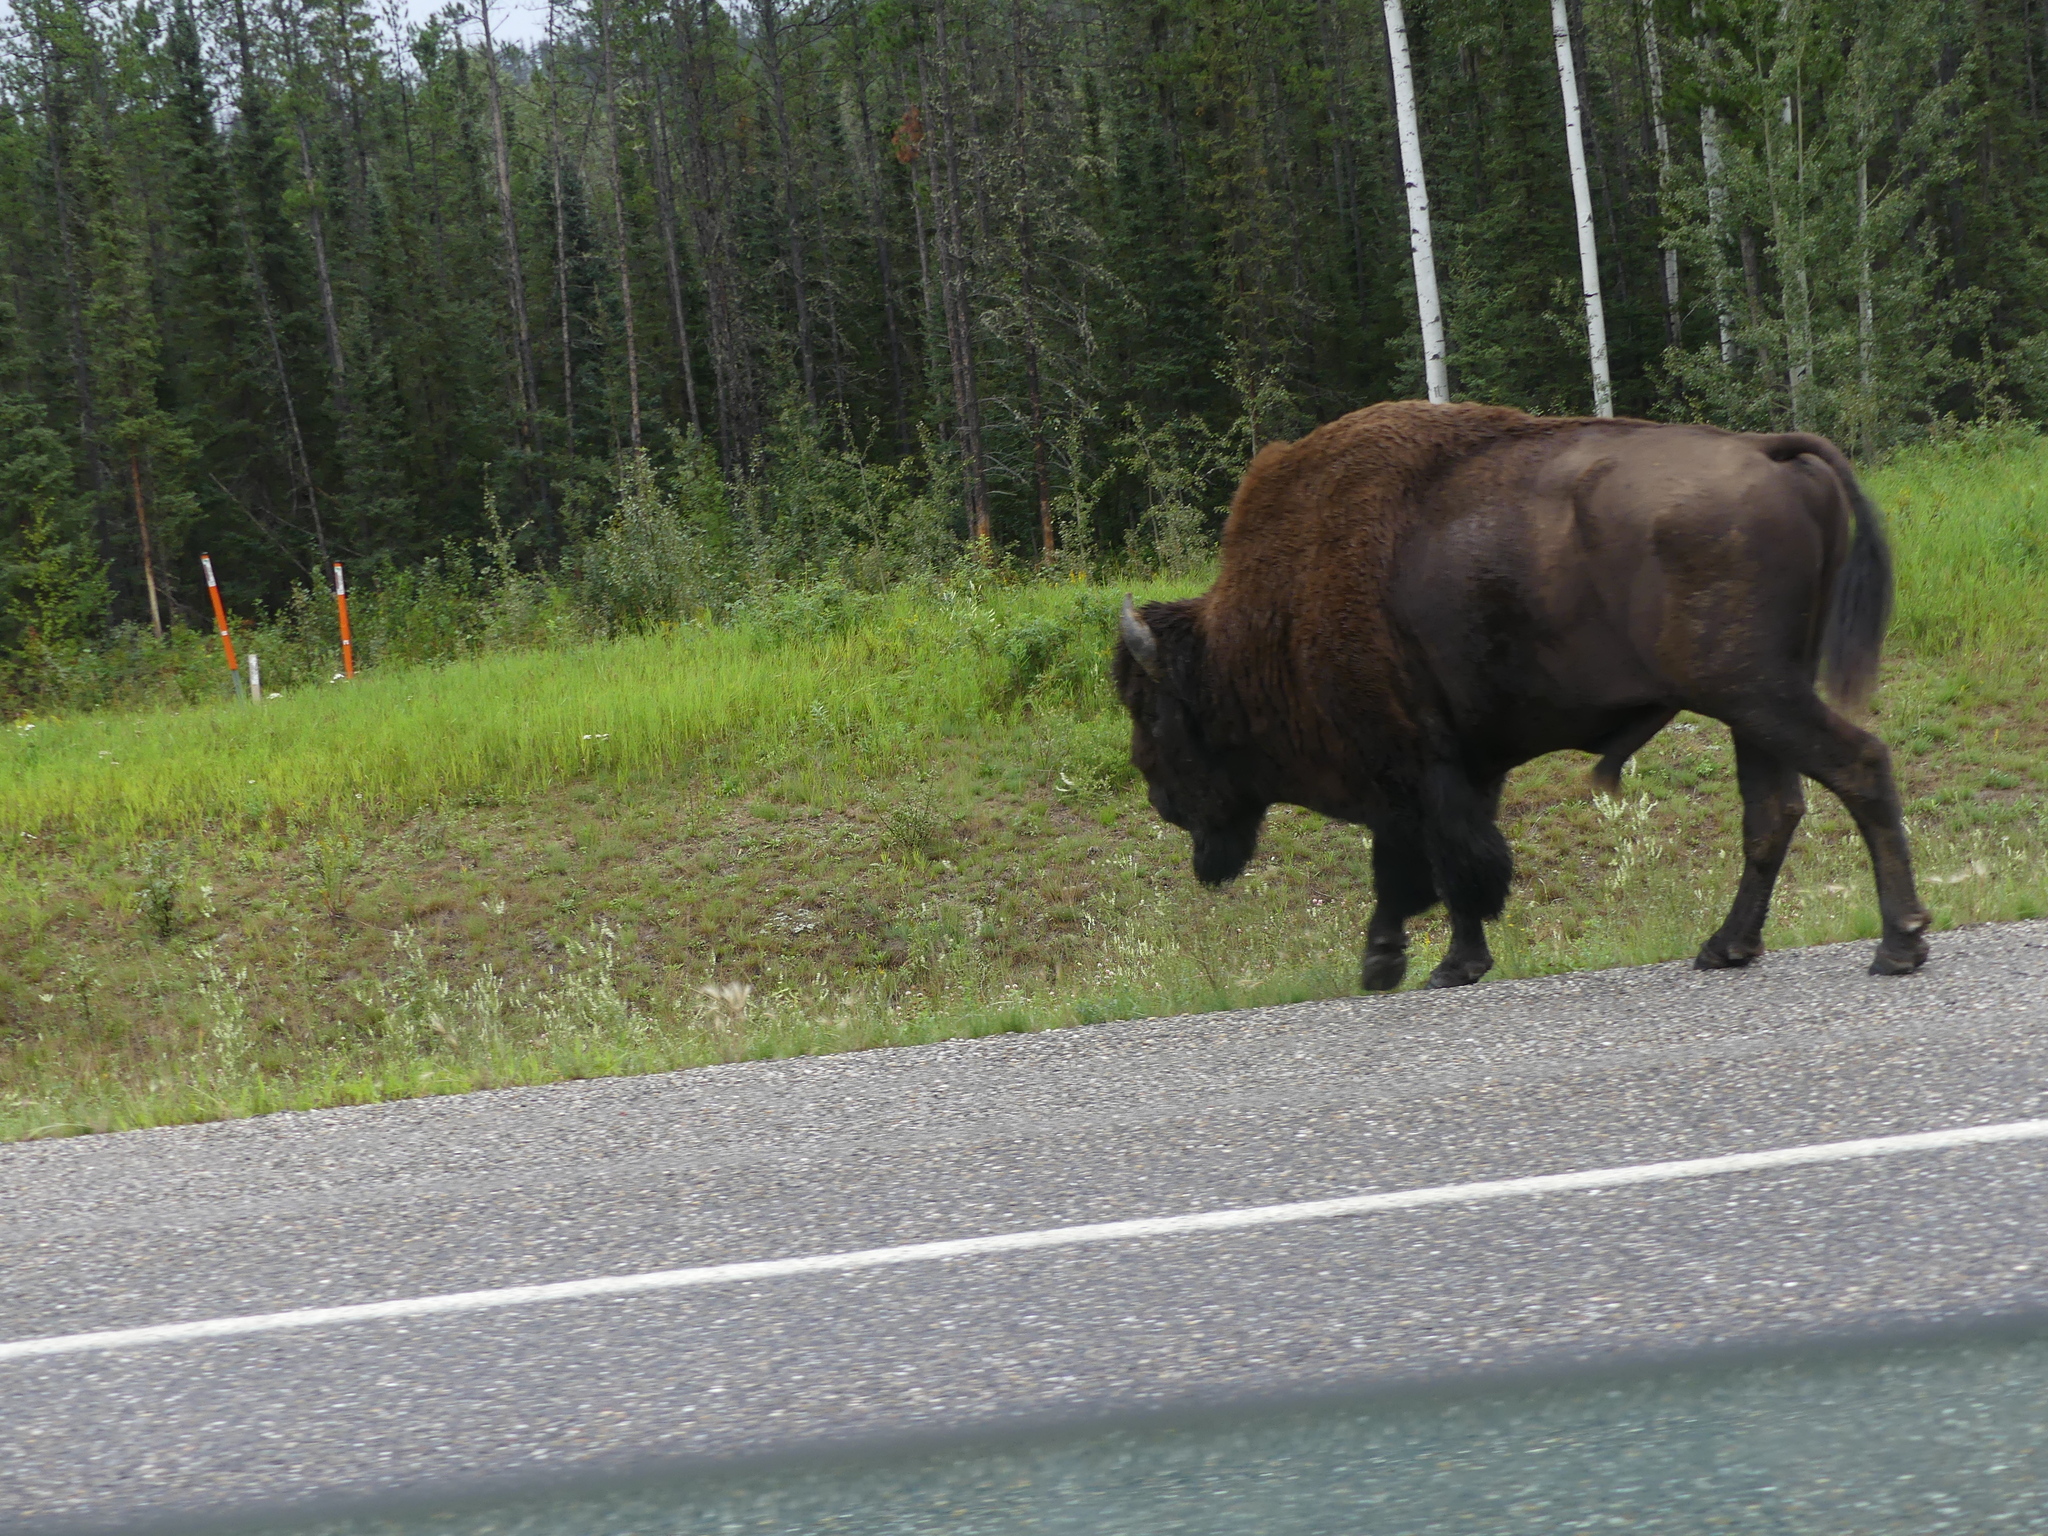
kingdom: Animalia
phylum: Chordata
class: Mammalia
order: Artiodactyla
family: Bovidae
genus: Bison
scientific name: Bison bison
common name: American bison
